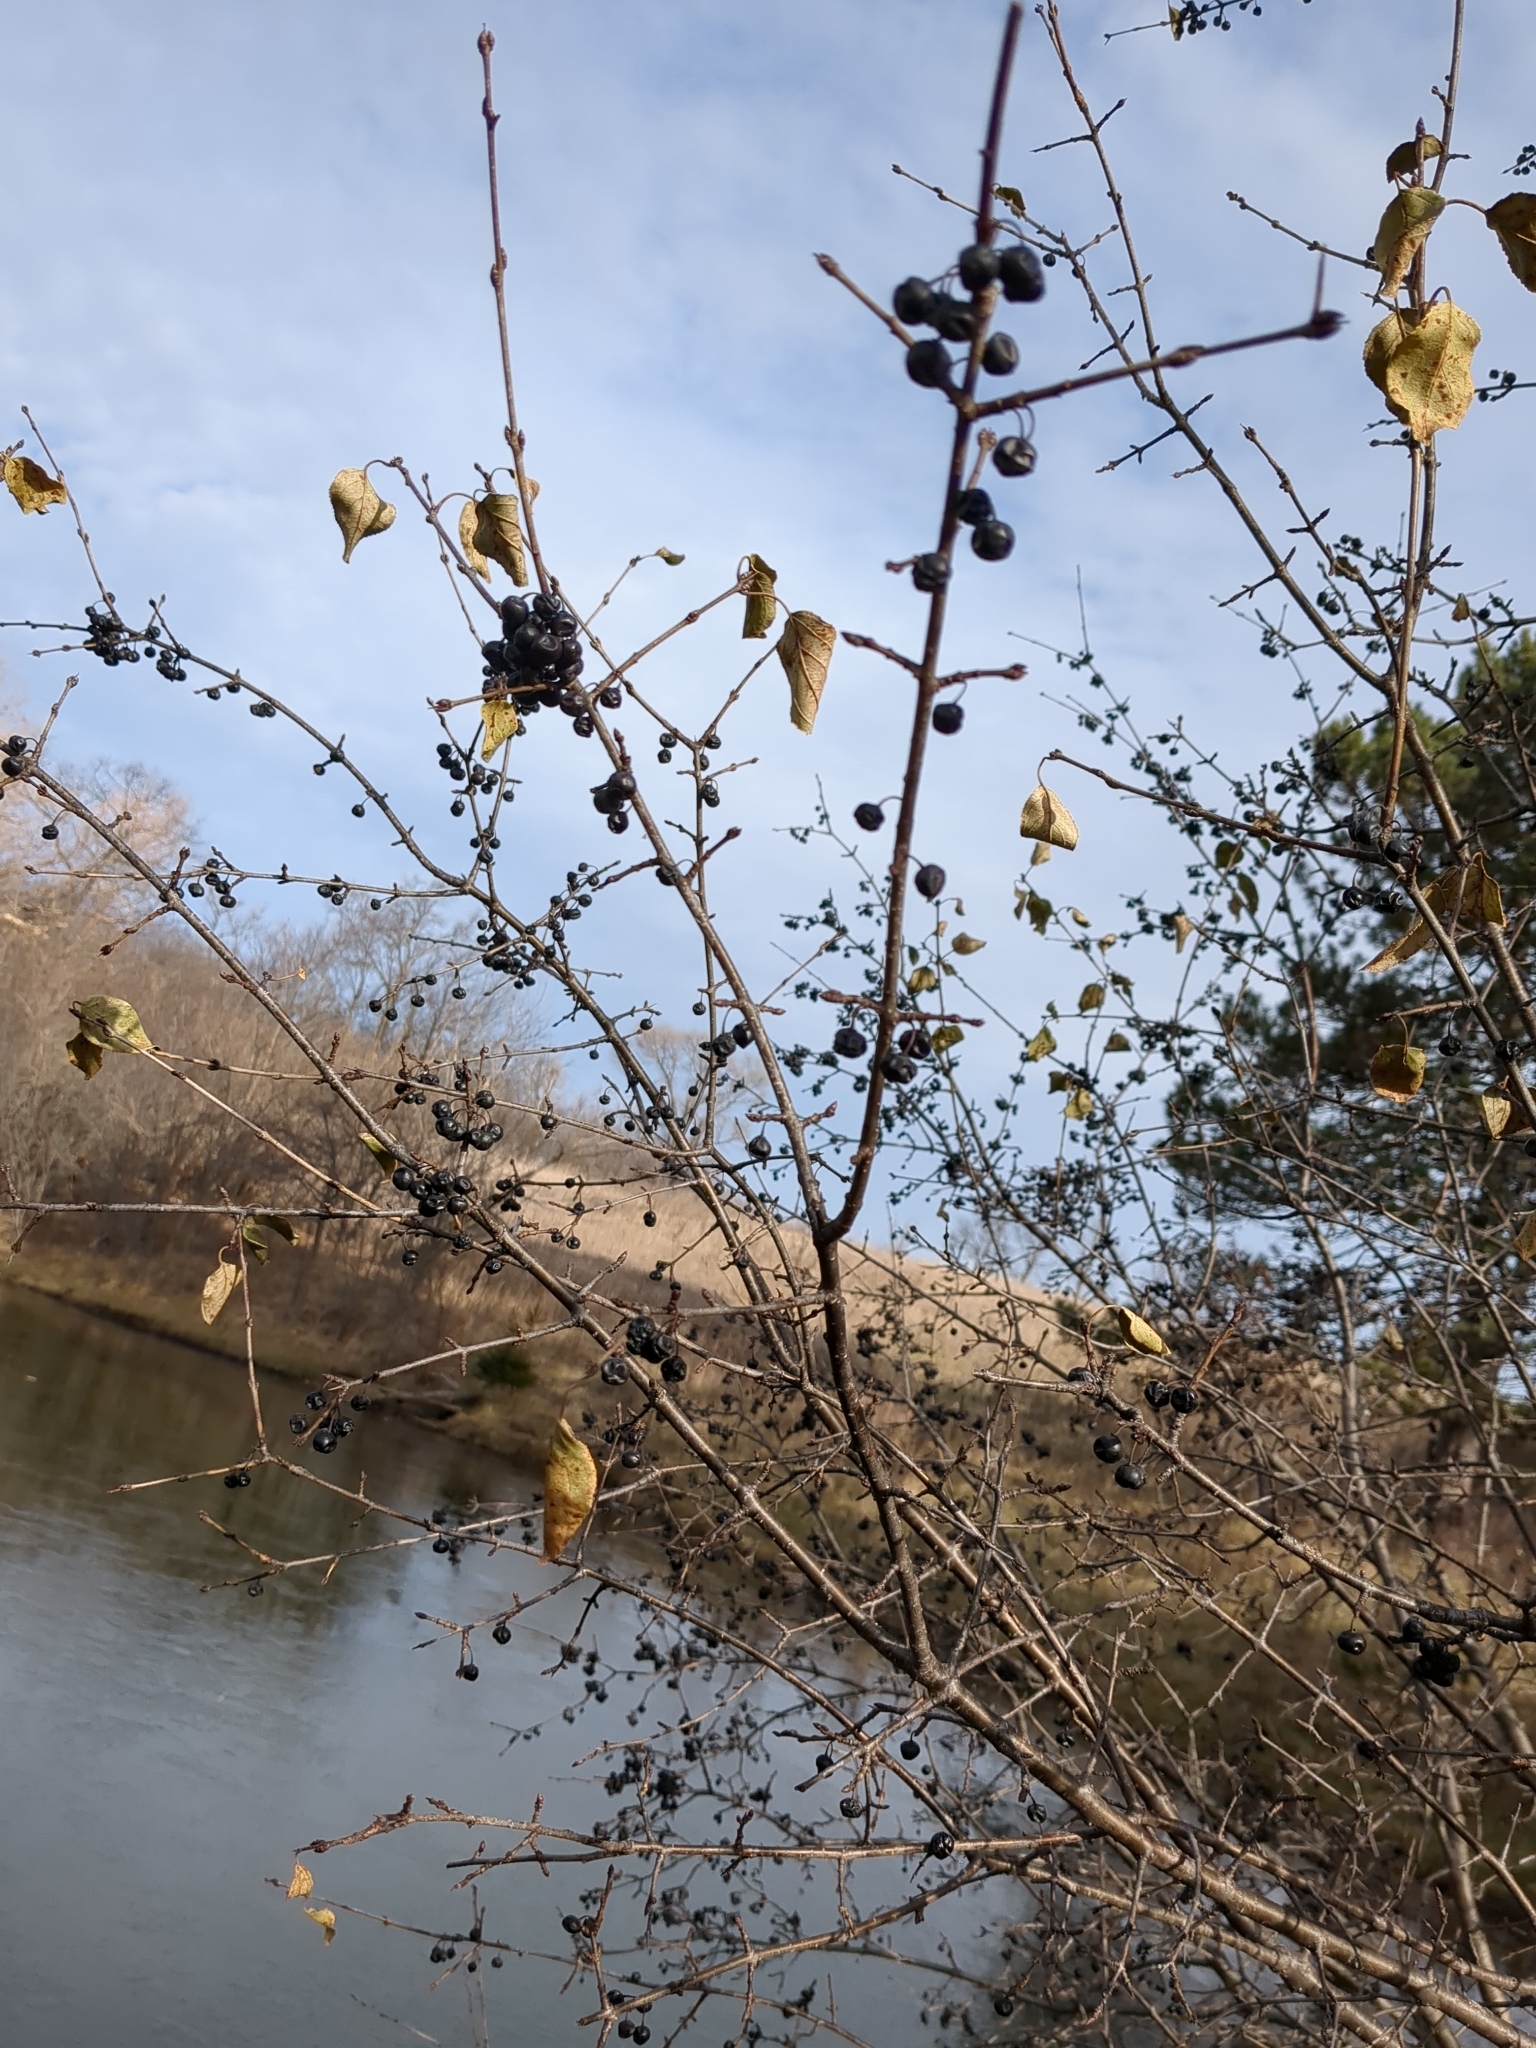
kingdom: Plantae
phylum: Tracheophyta
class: Magnoliopsida
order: Rosales
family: Rhamnaceae
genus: Rhamnus
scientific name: Rhamnus cathartica
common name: Common buckthorn
